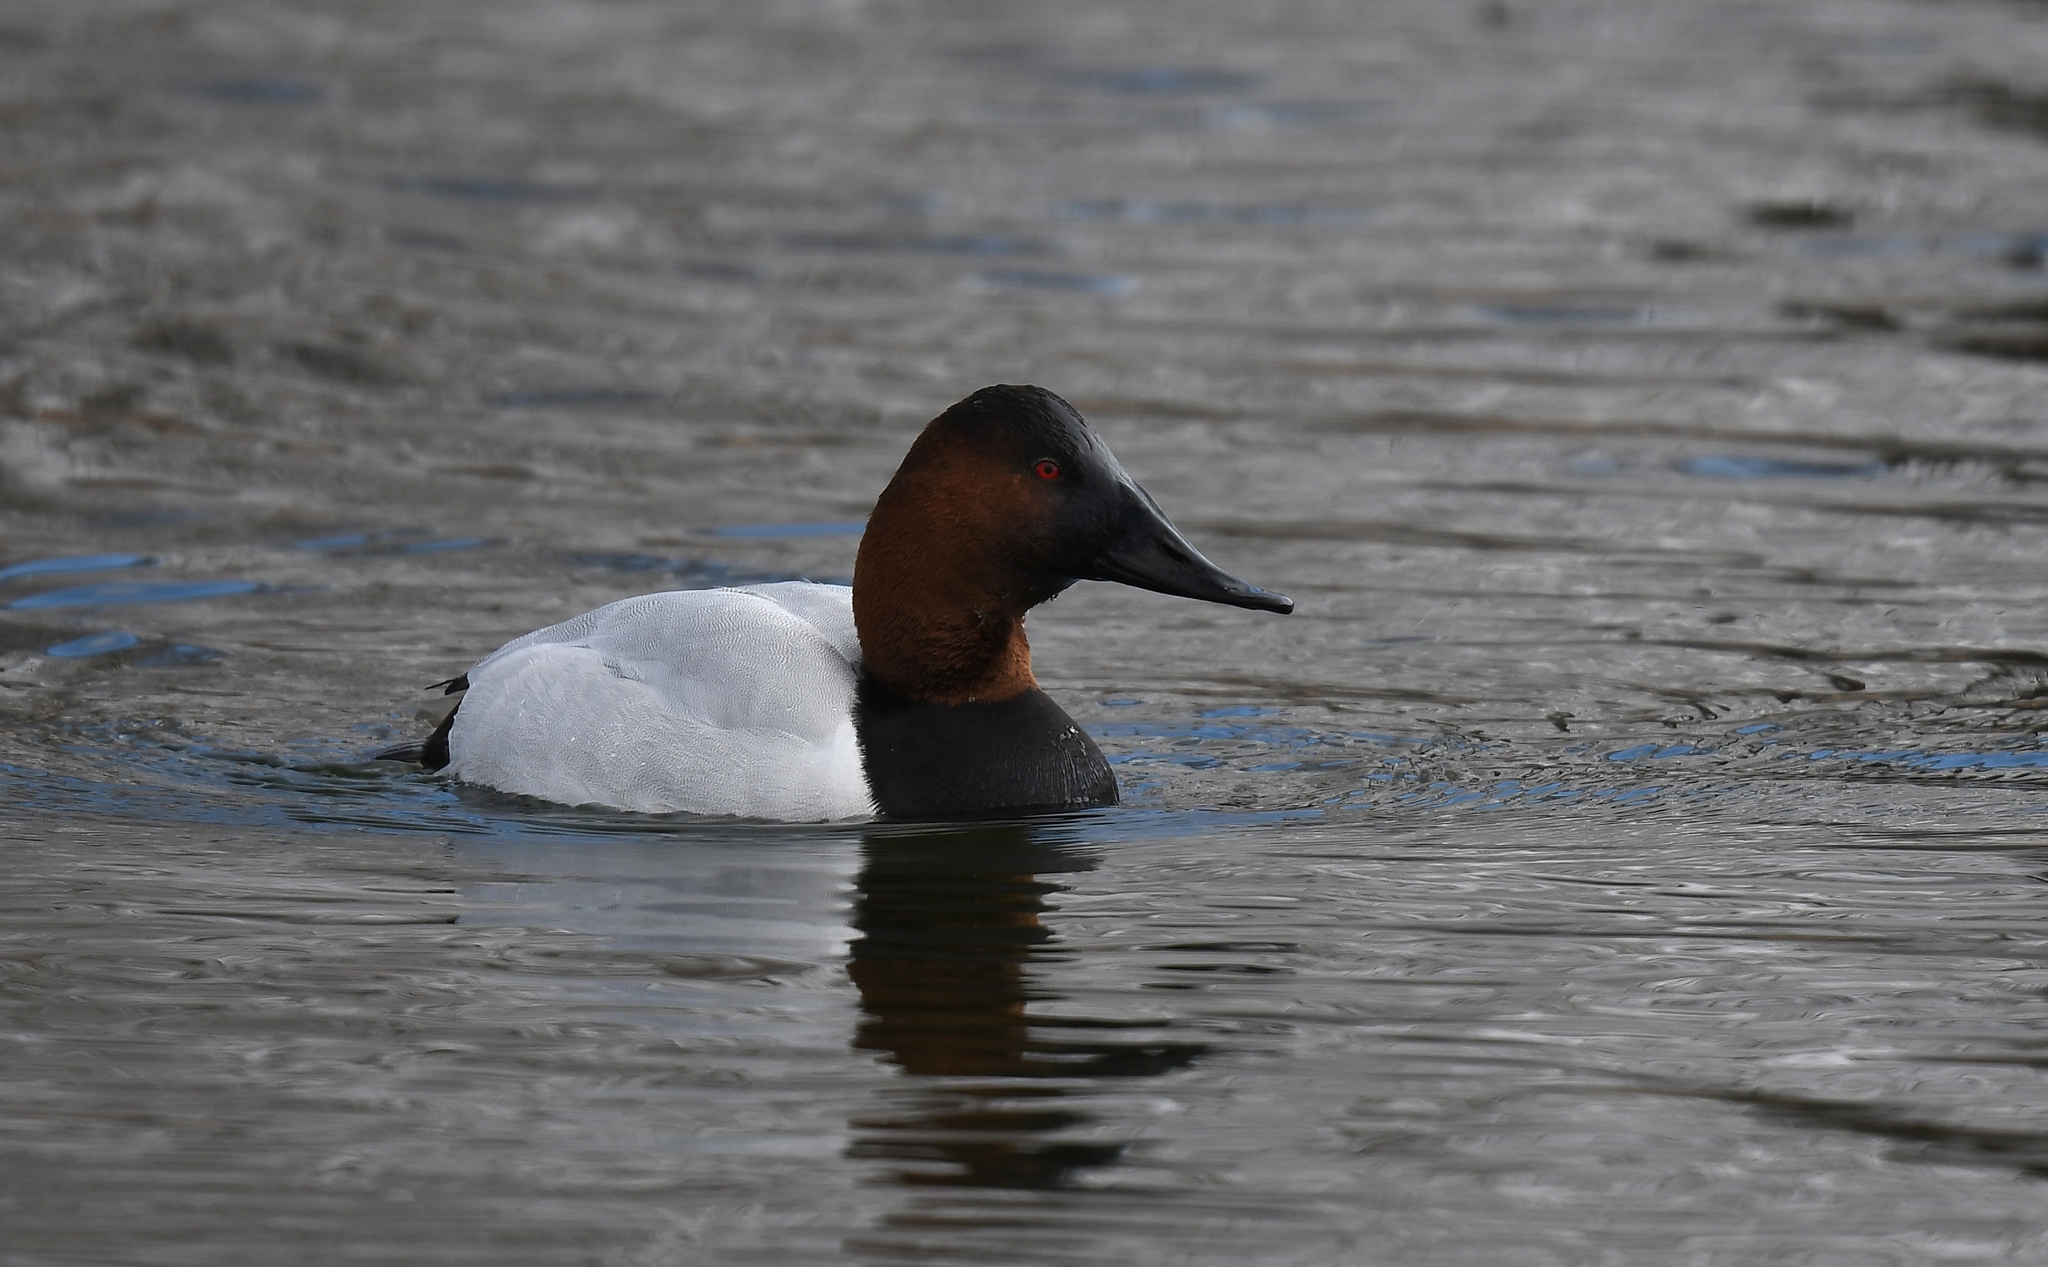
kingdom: Animalia
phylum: Chordata
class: Aves
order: Anseriformes
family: Anatidae
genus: Aythya
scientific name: Aythya valisineria
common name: Canvasback
